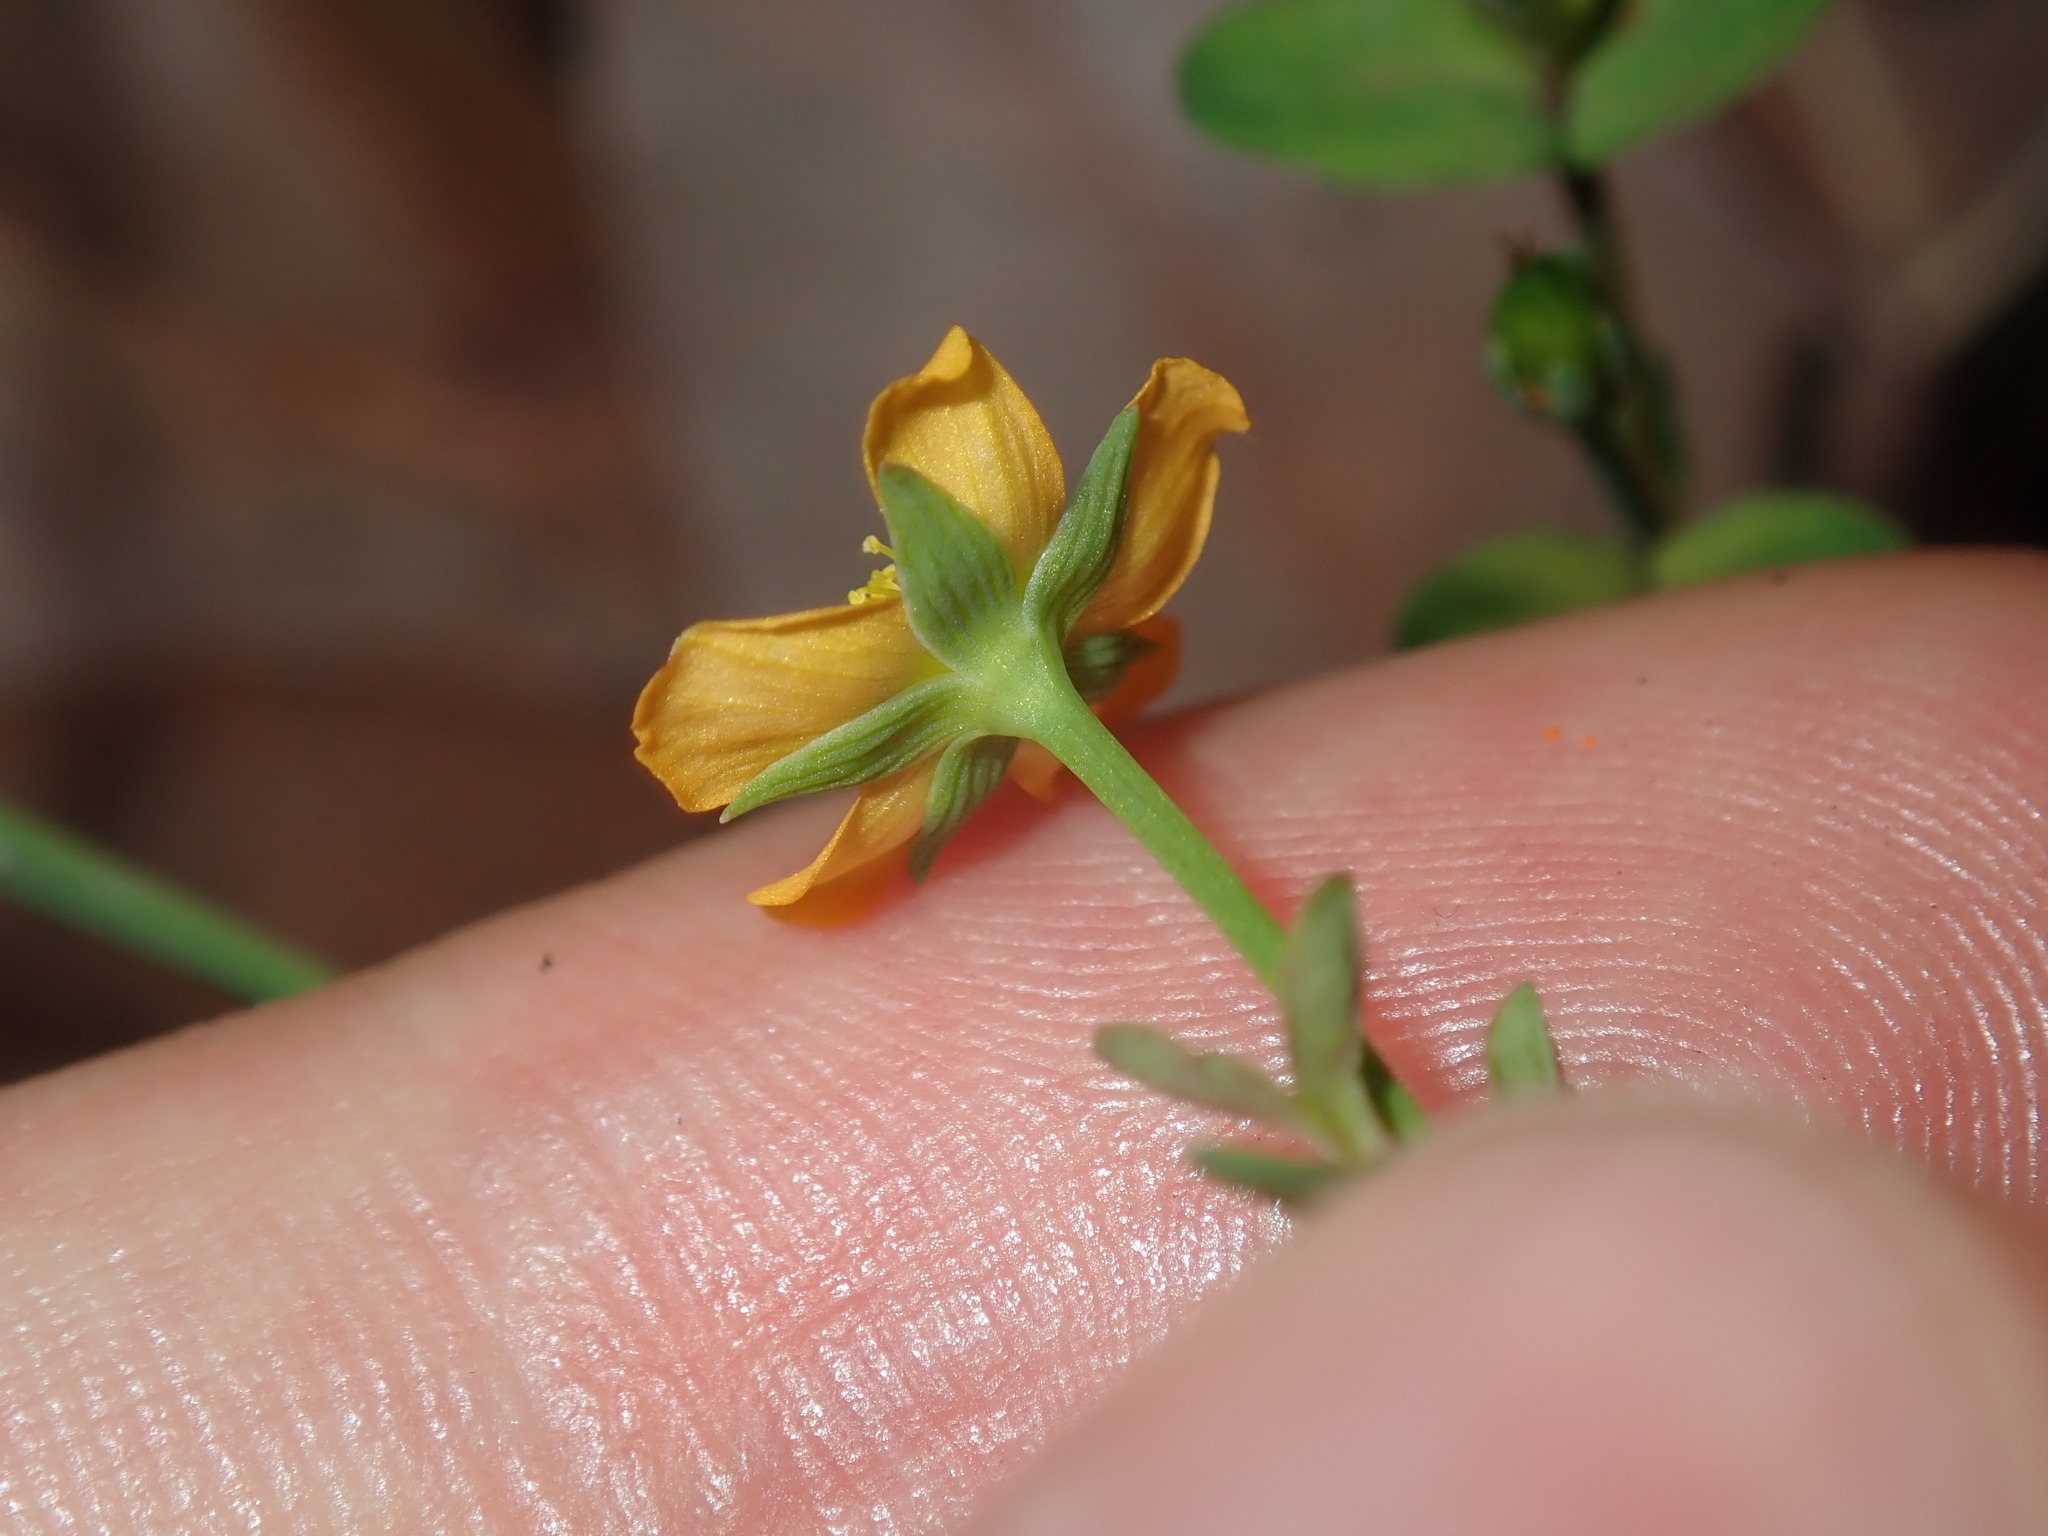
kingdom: Plantae
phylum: Tracheophyta
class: Magnoliopsida
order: Malpighiales
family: Hypericaceae
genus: Hypericum
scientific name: Hypericum gramineum
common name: Grassy st. johnswort
